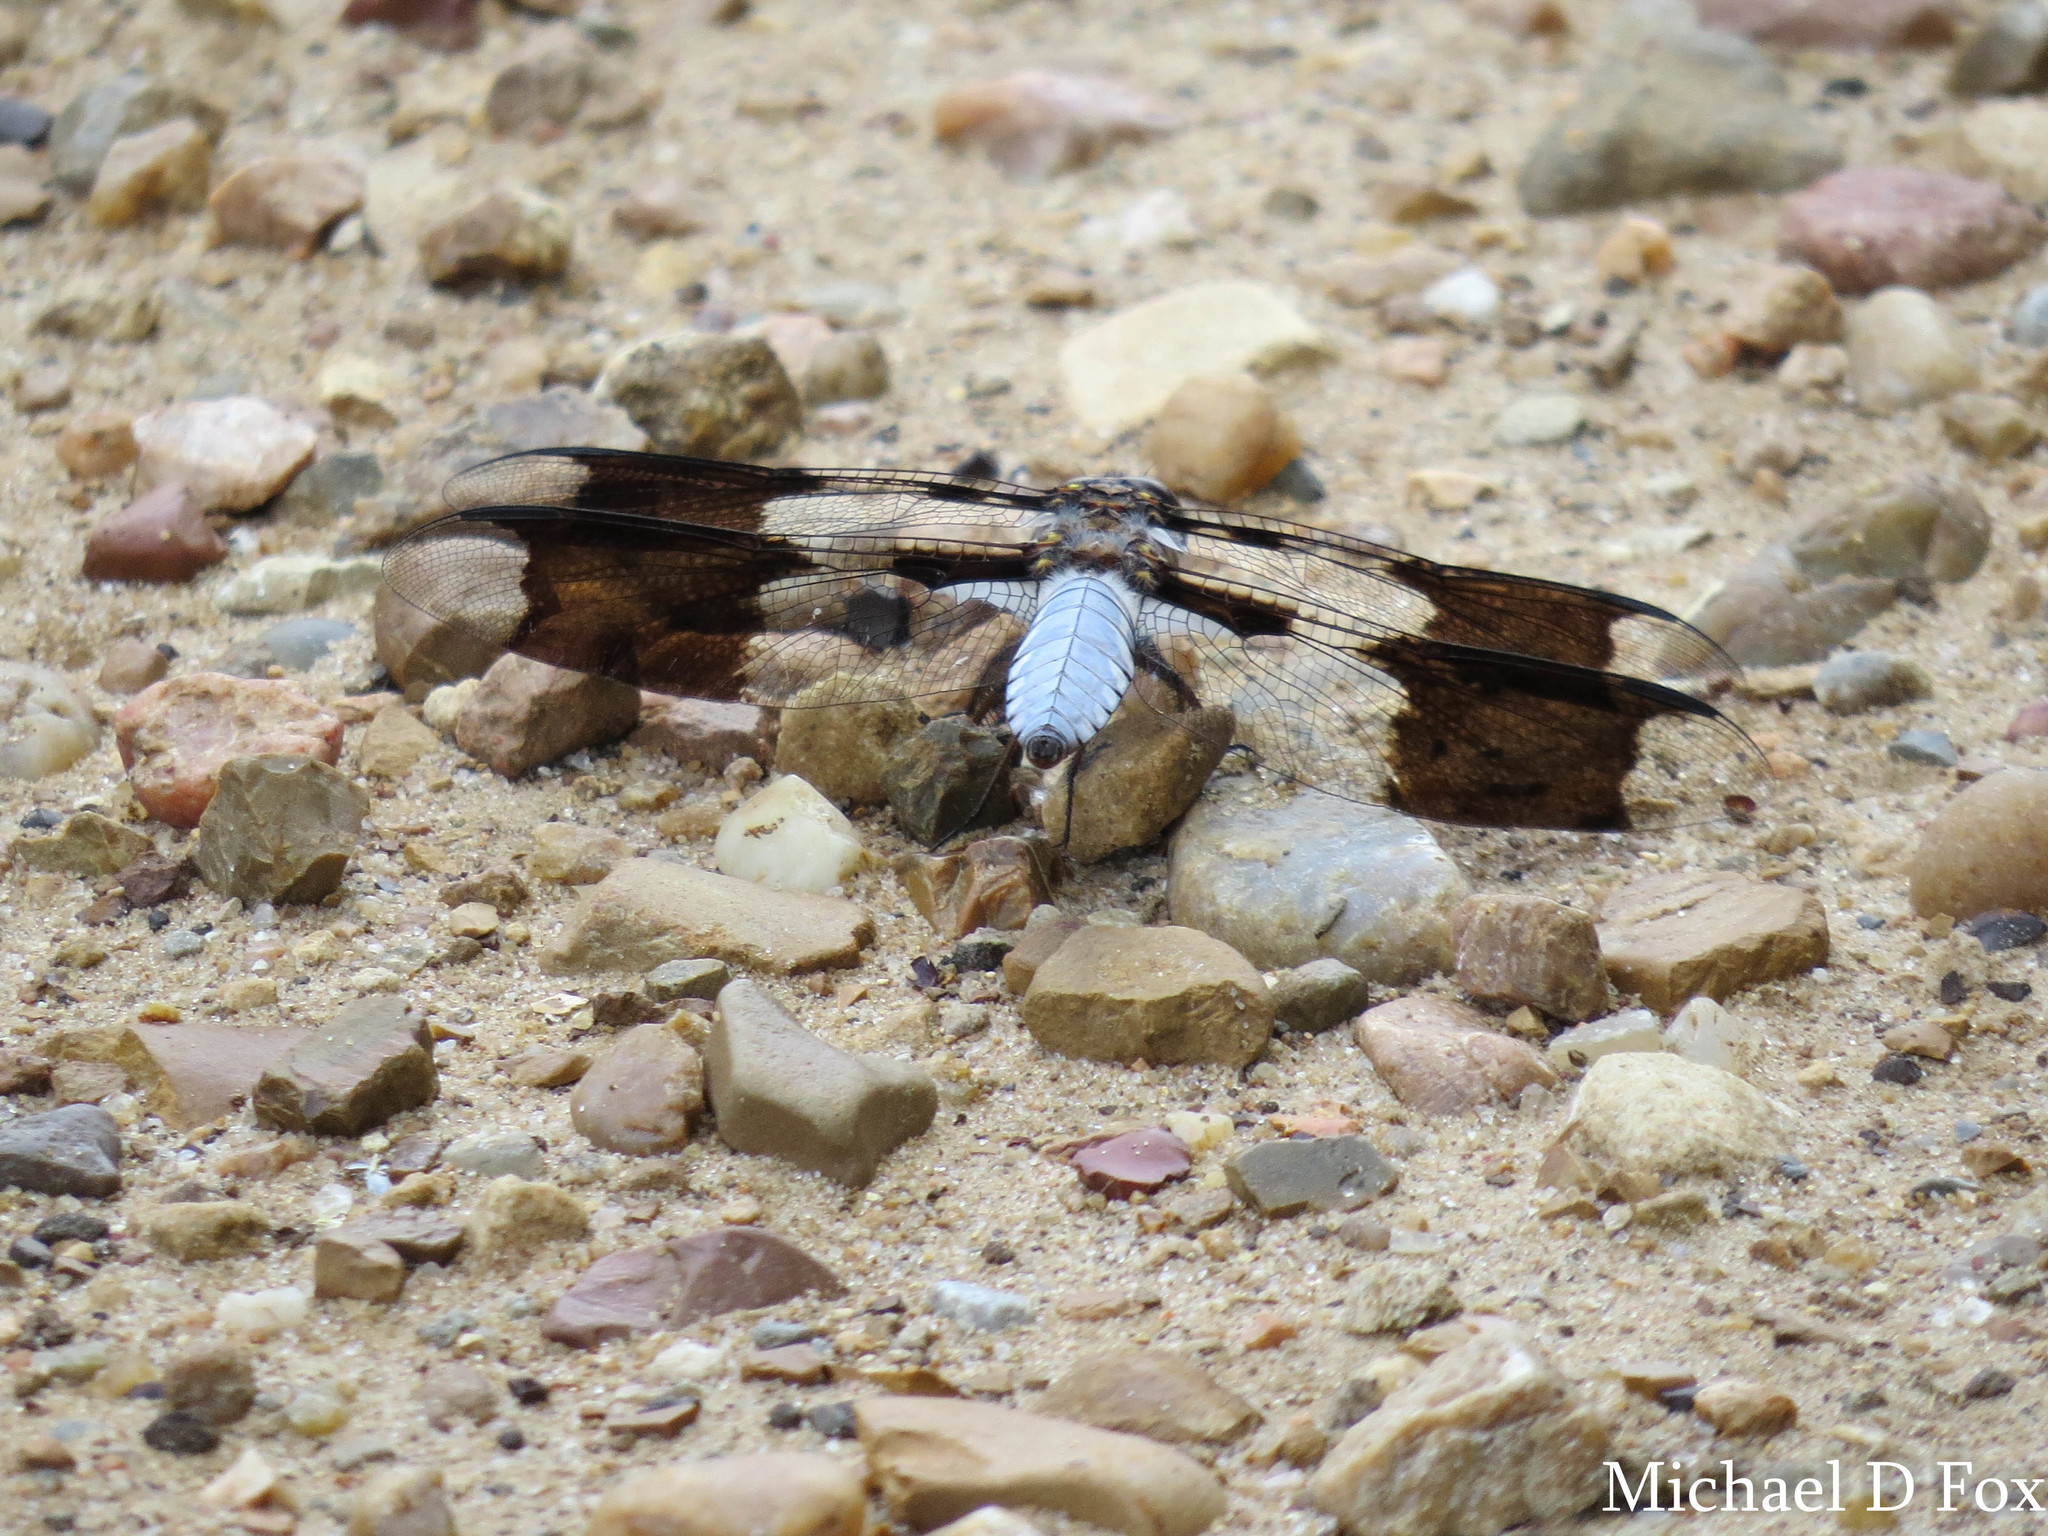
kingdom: Animalia
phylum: Arthropoda
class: Insecta
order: Odonata
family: Libellulidae
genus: Plathemis
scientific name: Plathemis lydia
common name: Common whitetail
